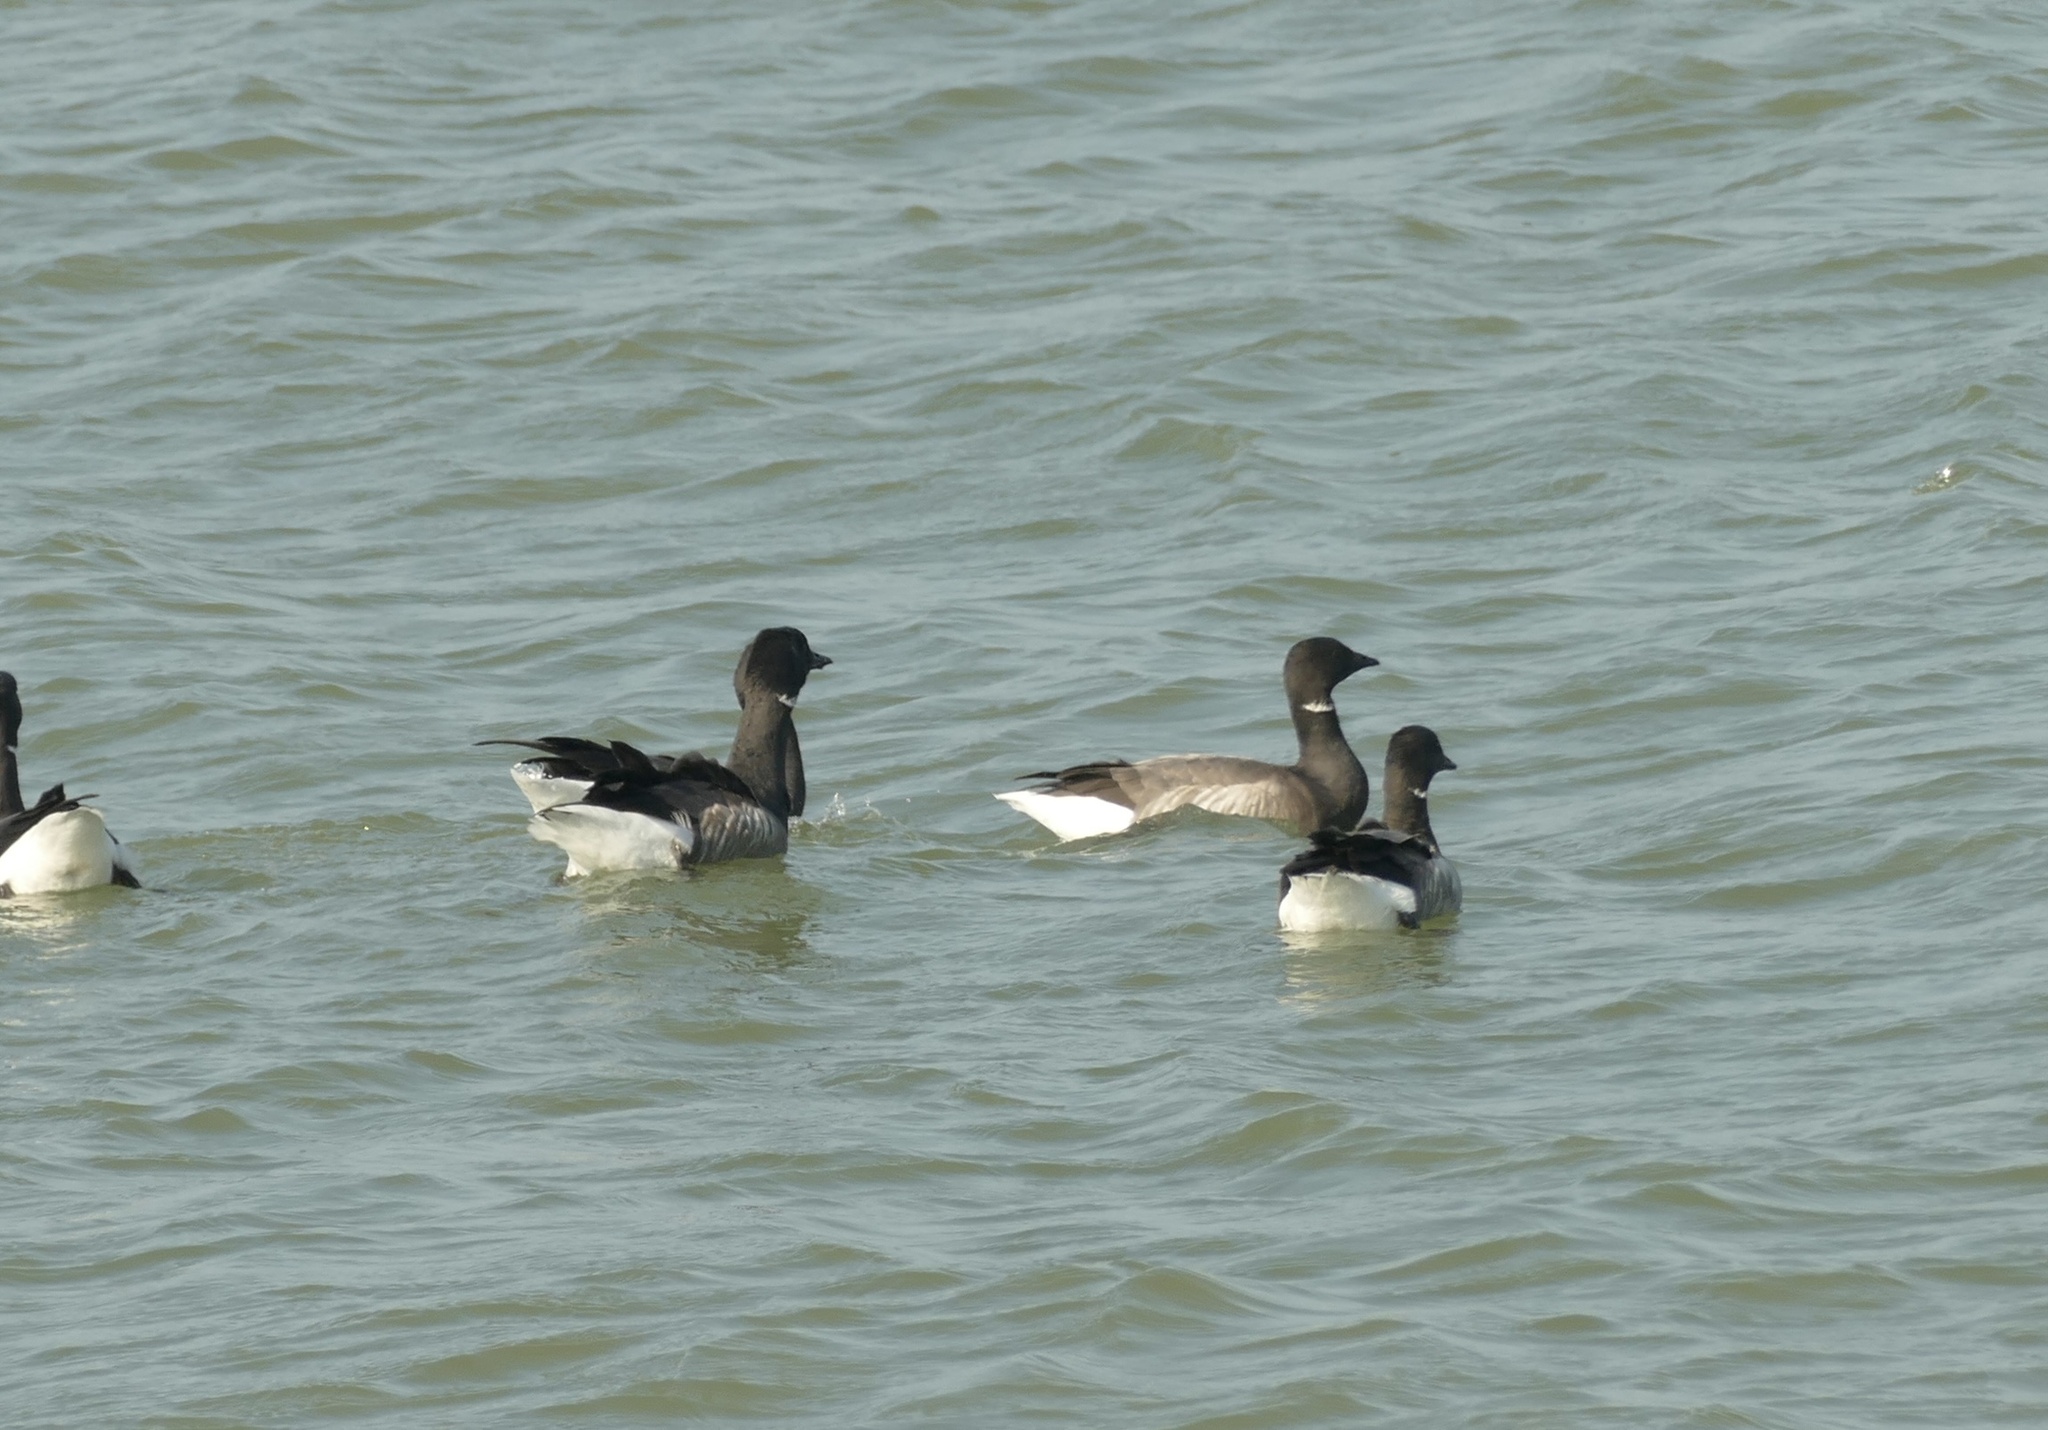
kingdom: Animalia
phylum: Chordata
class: Aves
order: Anseriformes
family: Anatidae
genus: Branta
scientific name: Branta bernicla
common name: Brant goose
